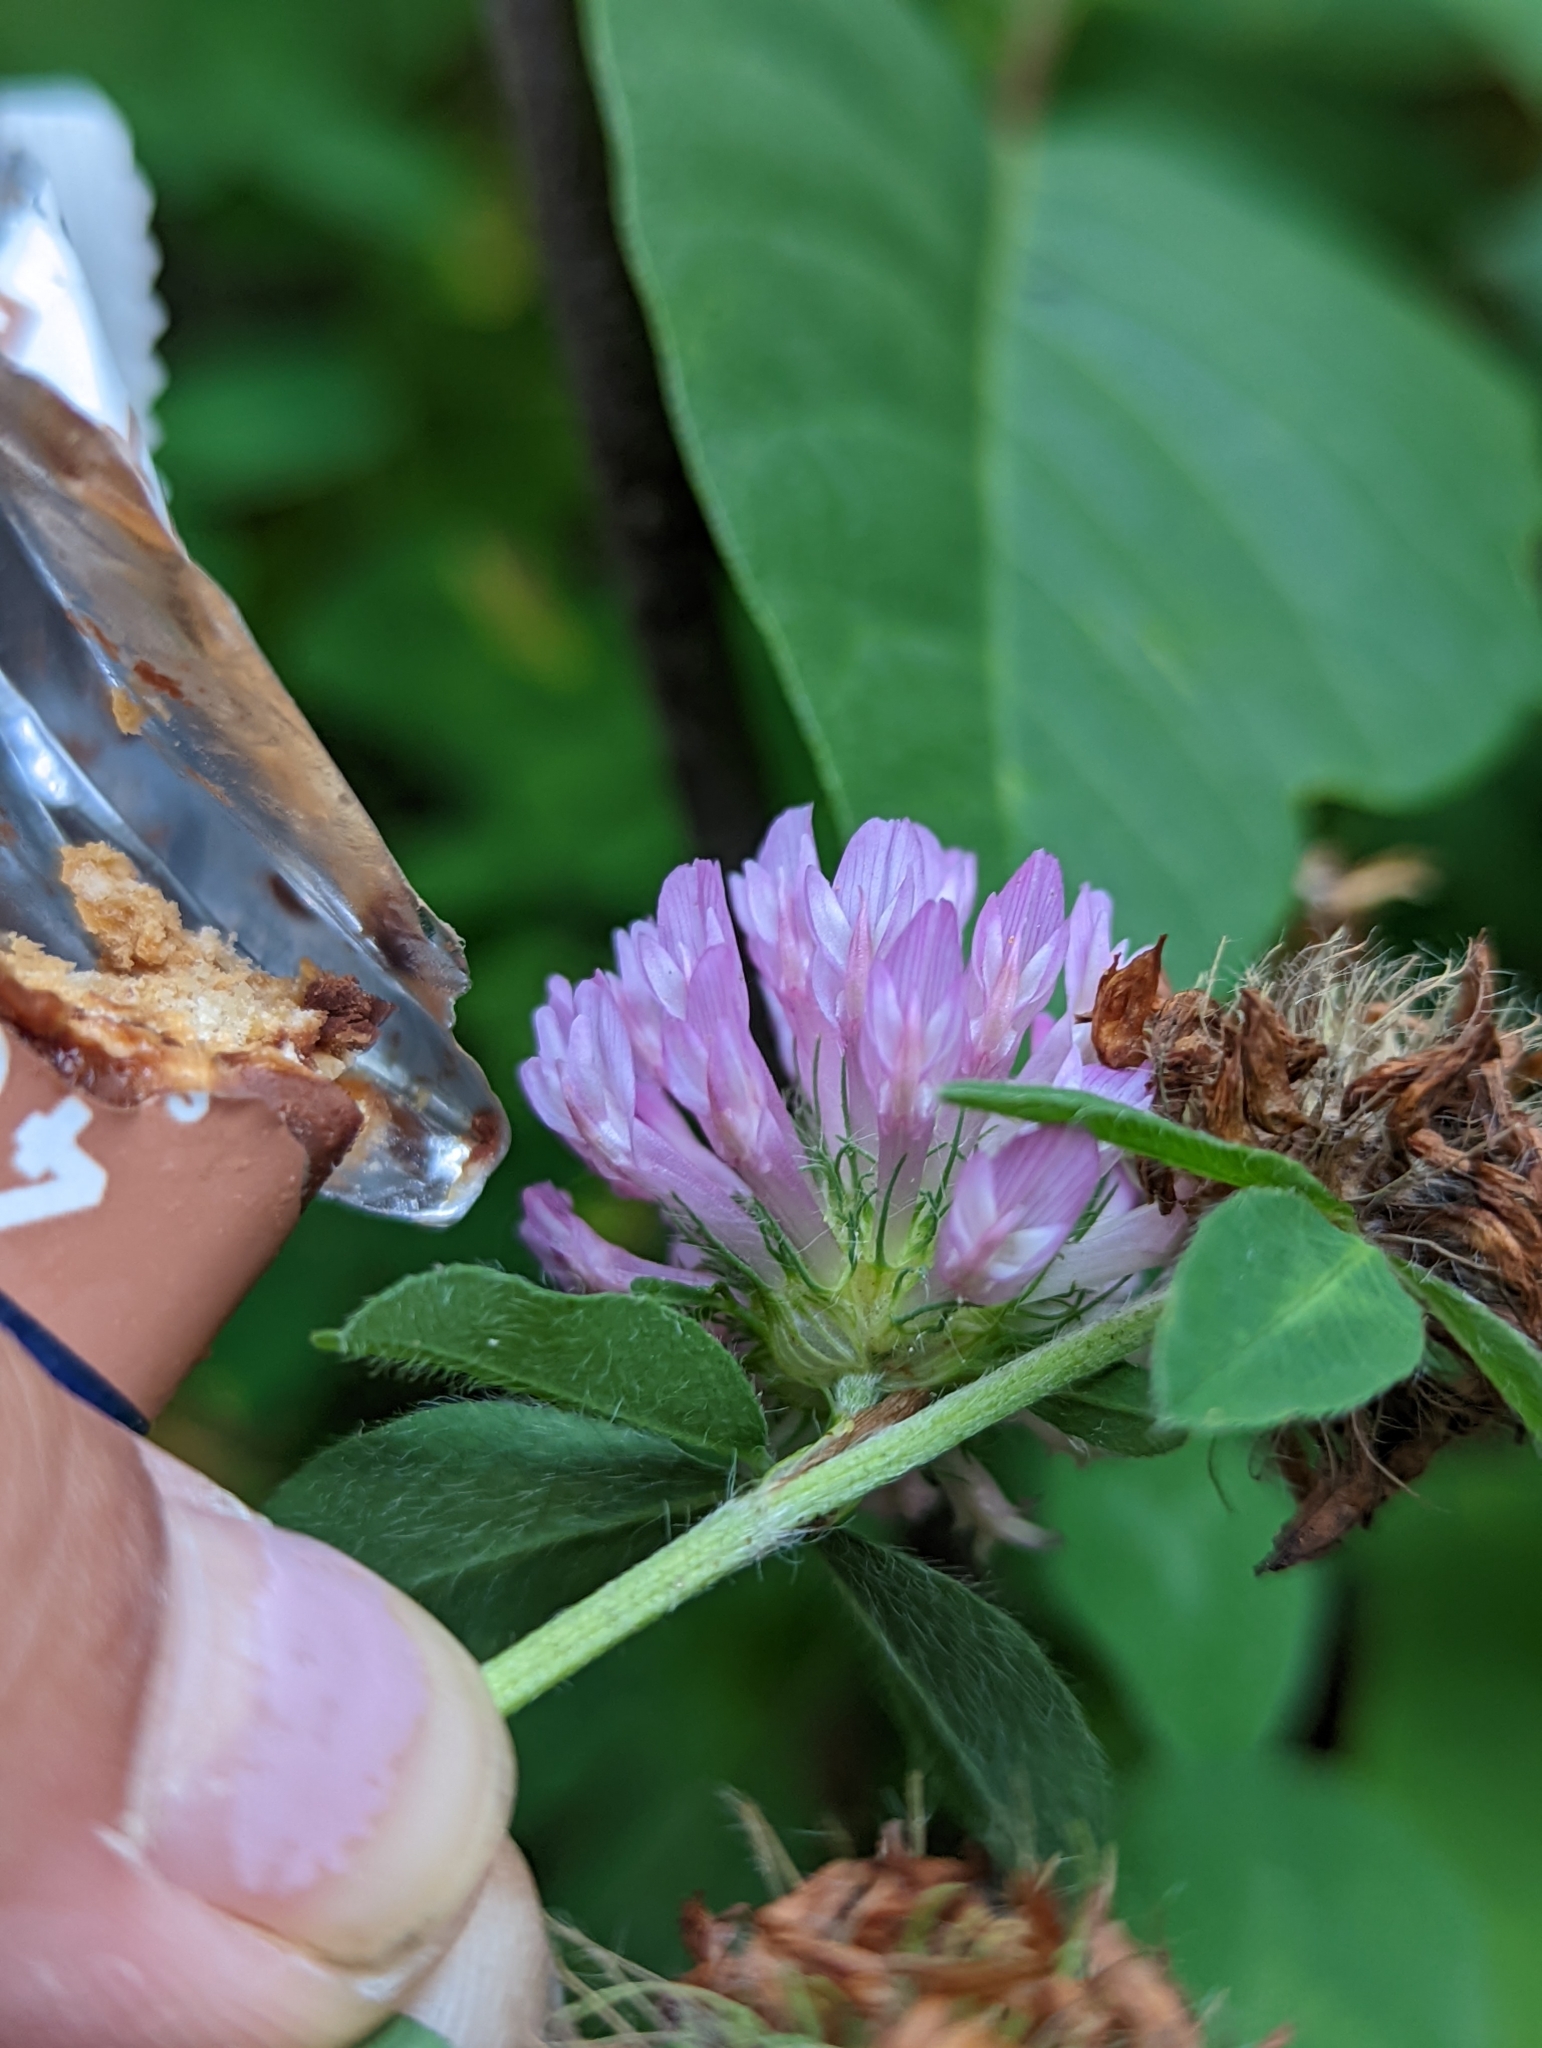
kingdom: Plantae
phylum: Tracheophyta
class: Magnoliopsida
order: Fabales
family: Fabaceae
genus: Trifolium
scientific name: Trifolium pratense
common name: Red clover
